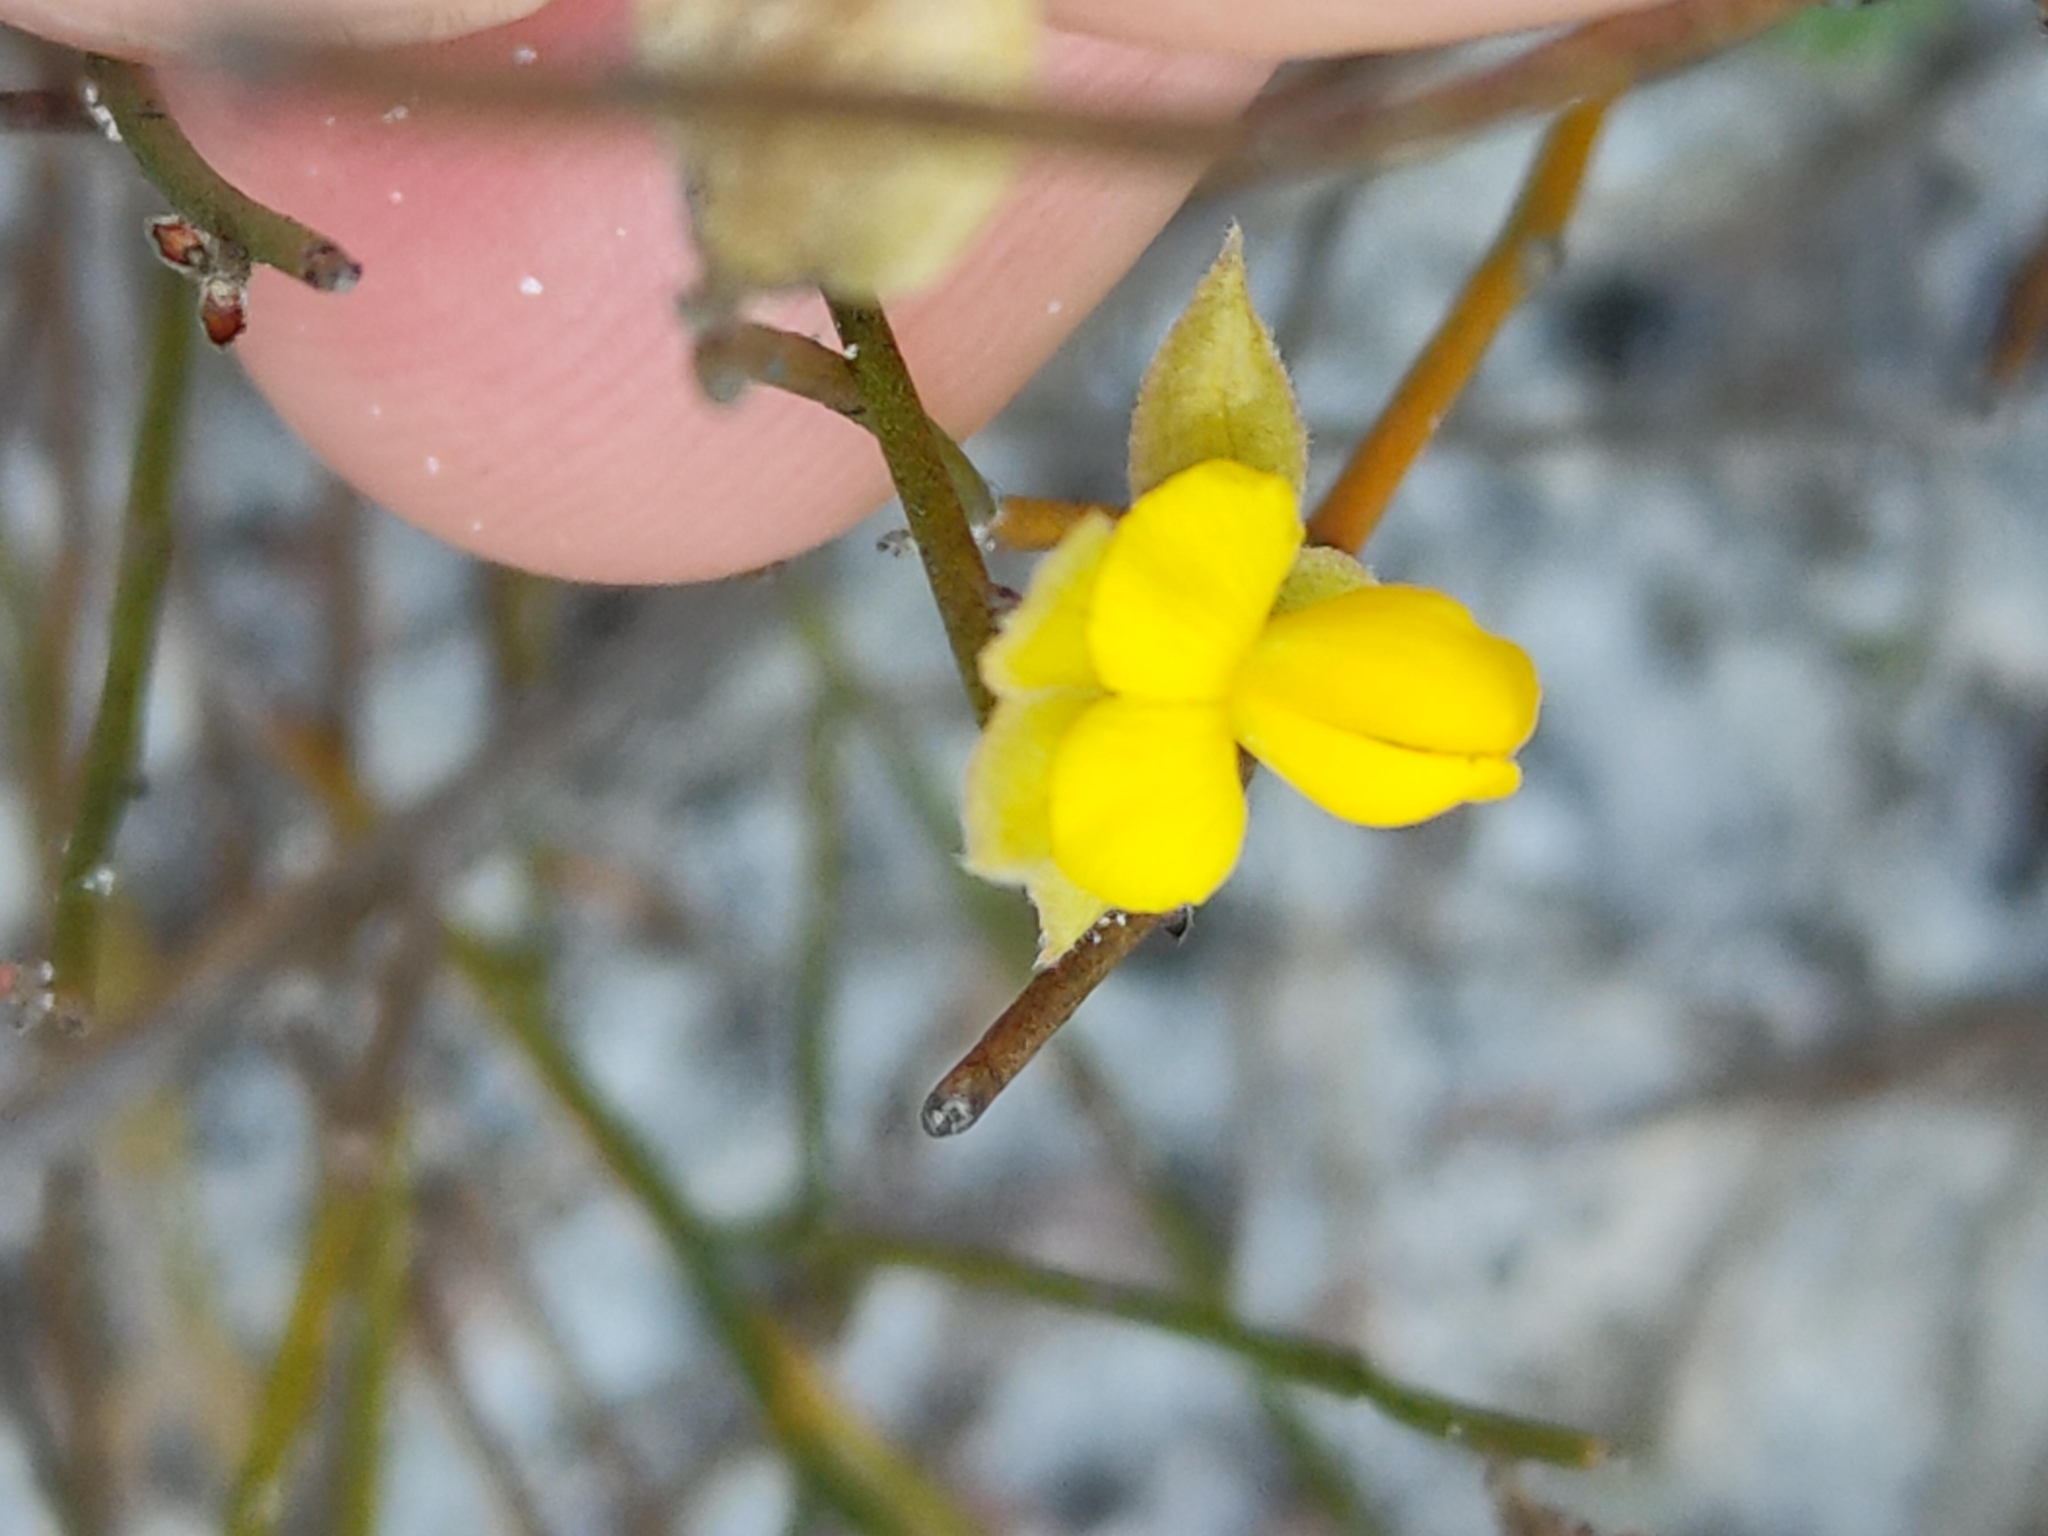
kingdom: Plantae
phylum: Tracheophyta
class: Magnoliopsida
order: Fabales
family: Fabaceae
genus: Jacksonia
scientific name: Jacksonia stackhousei
